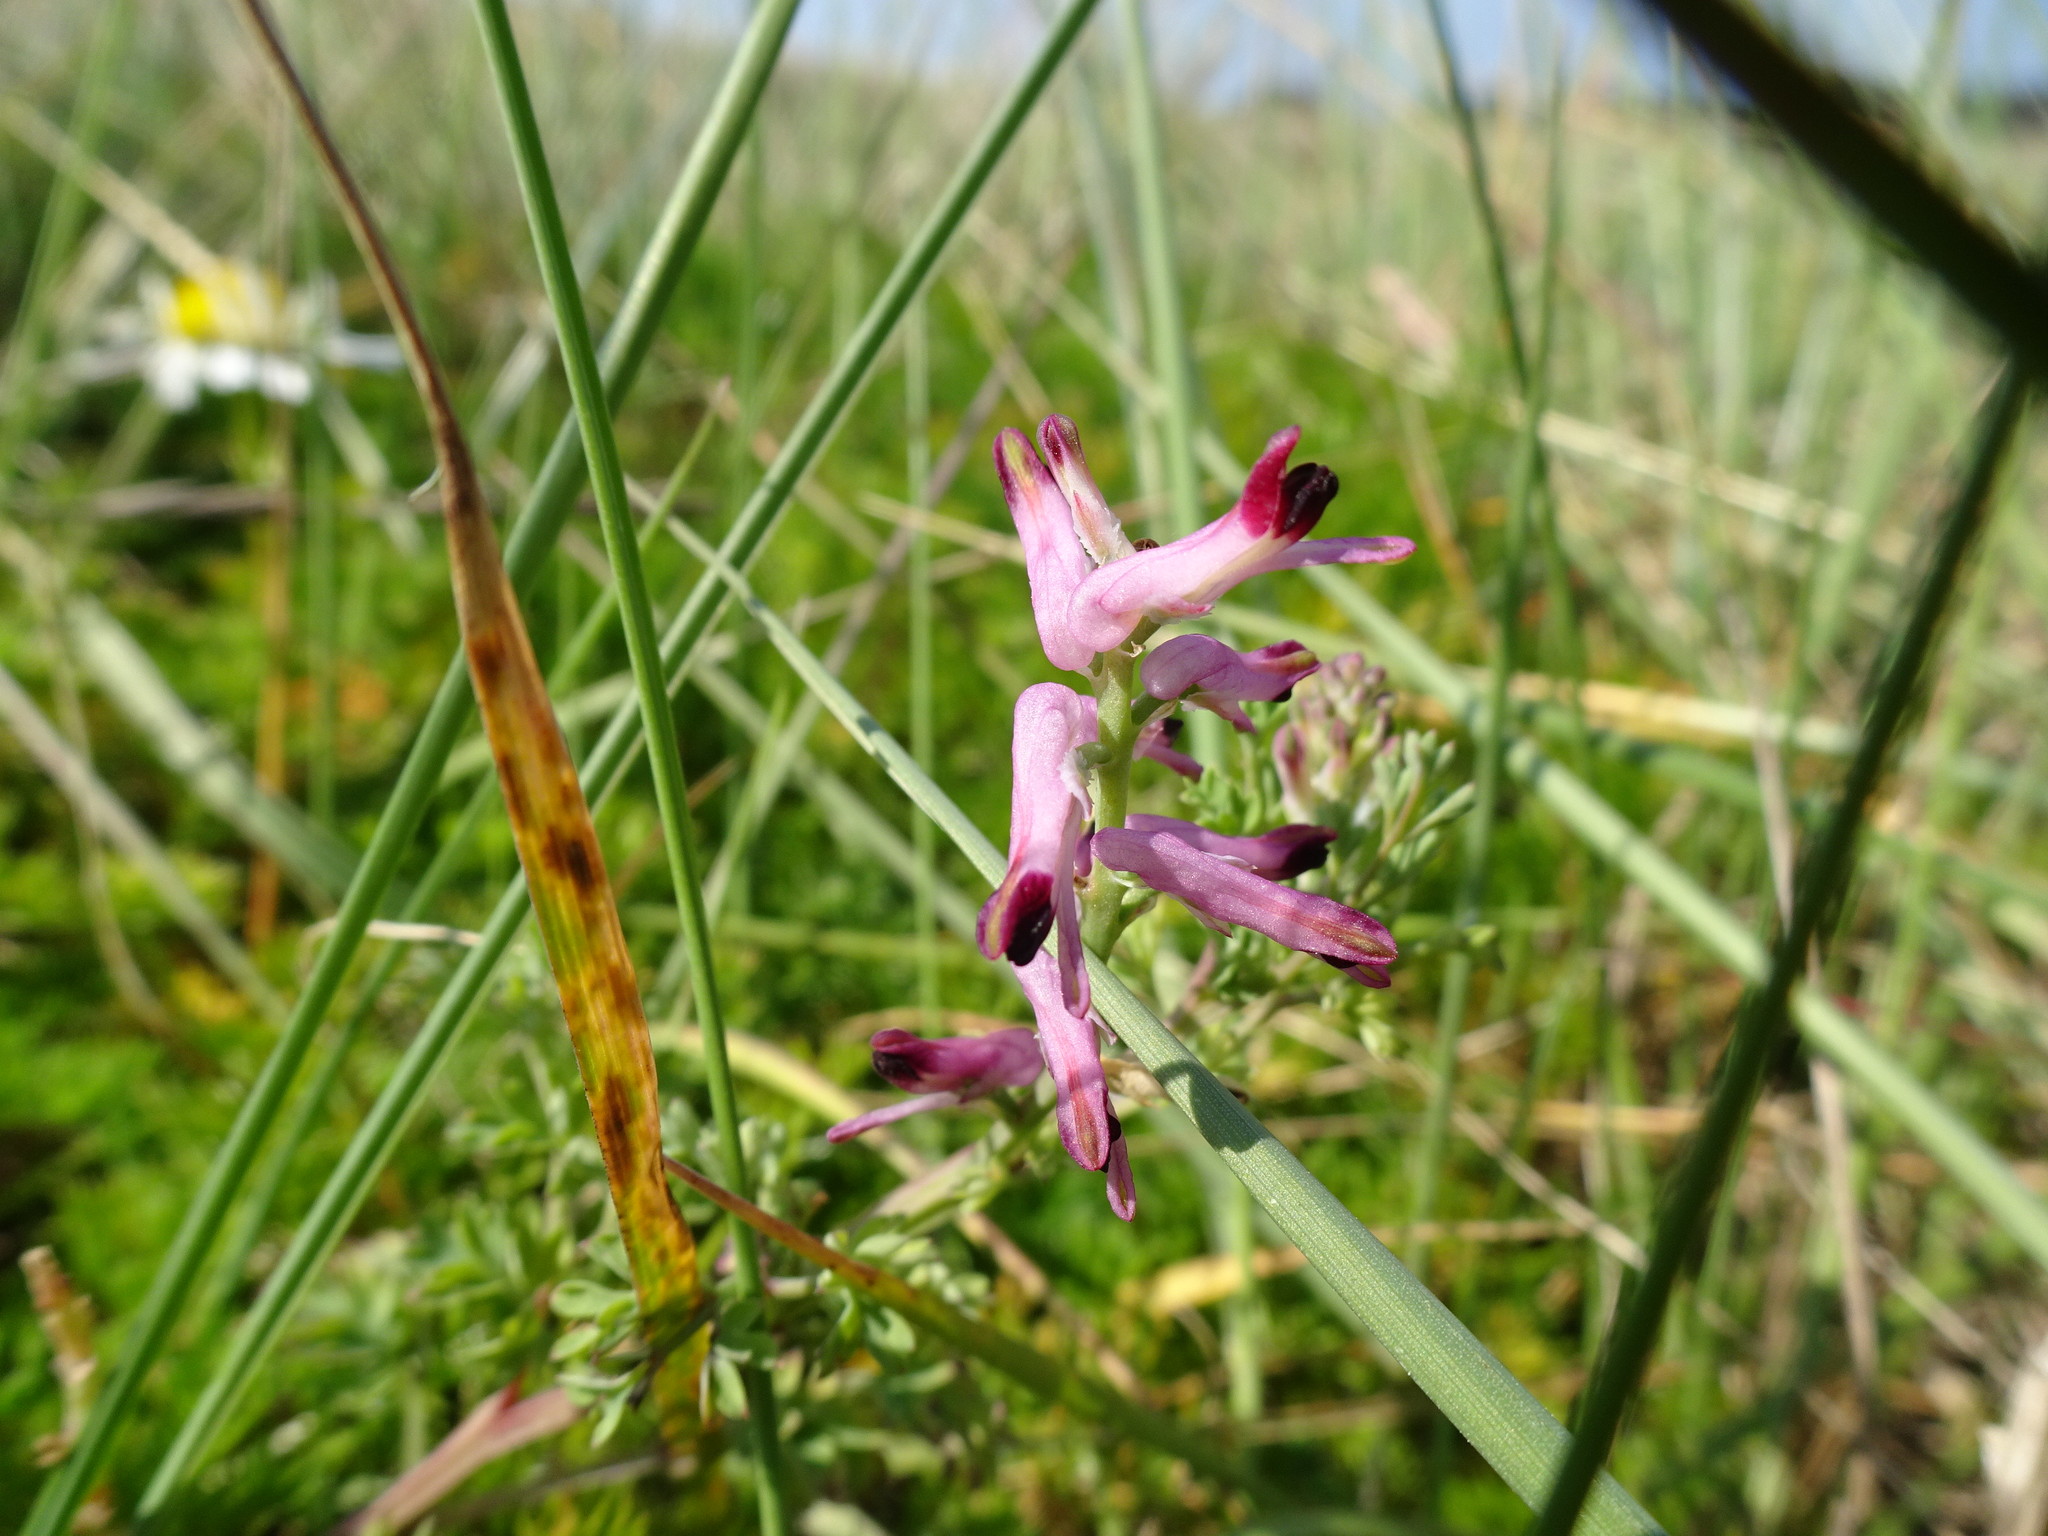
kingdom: Plantae
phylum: Tracheophyta
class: Magnoliopsida
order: Ranunculales
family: Papaveraceae
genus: Fumaria
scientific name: Fumaria officinalis
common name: Common fumitory
